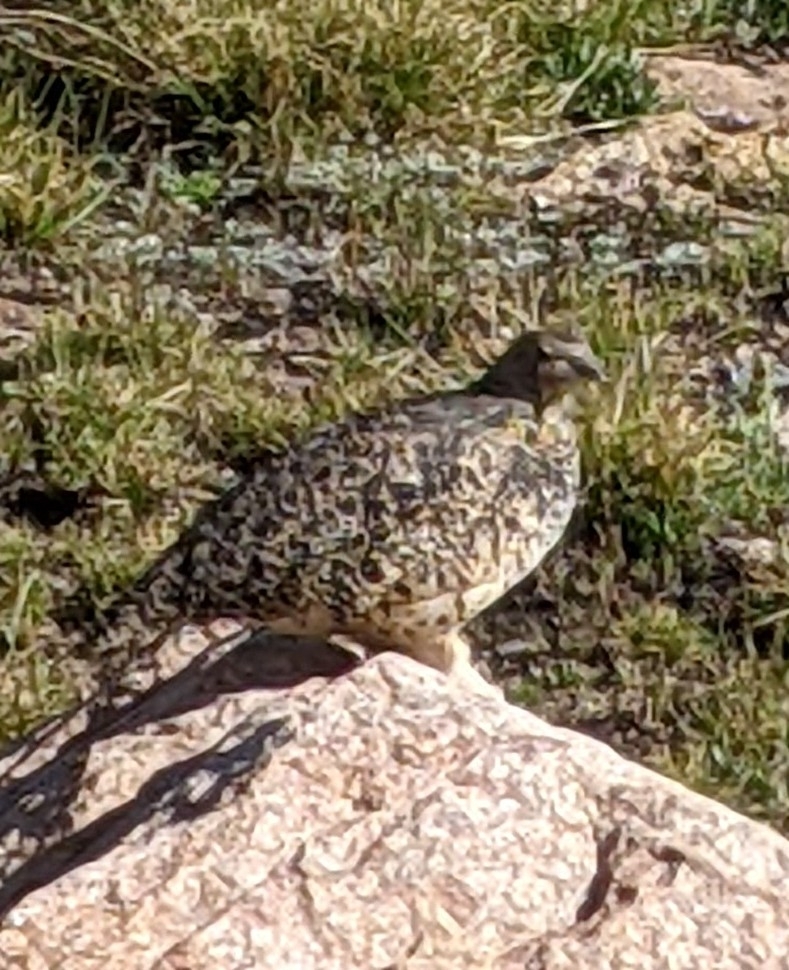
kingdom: Animalia
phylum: Chordata
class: Aves
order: Galliformes
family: Phasianidae
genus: Lagopus
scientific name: Lagopus leucura
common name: White-tailed ptarmigan
